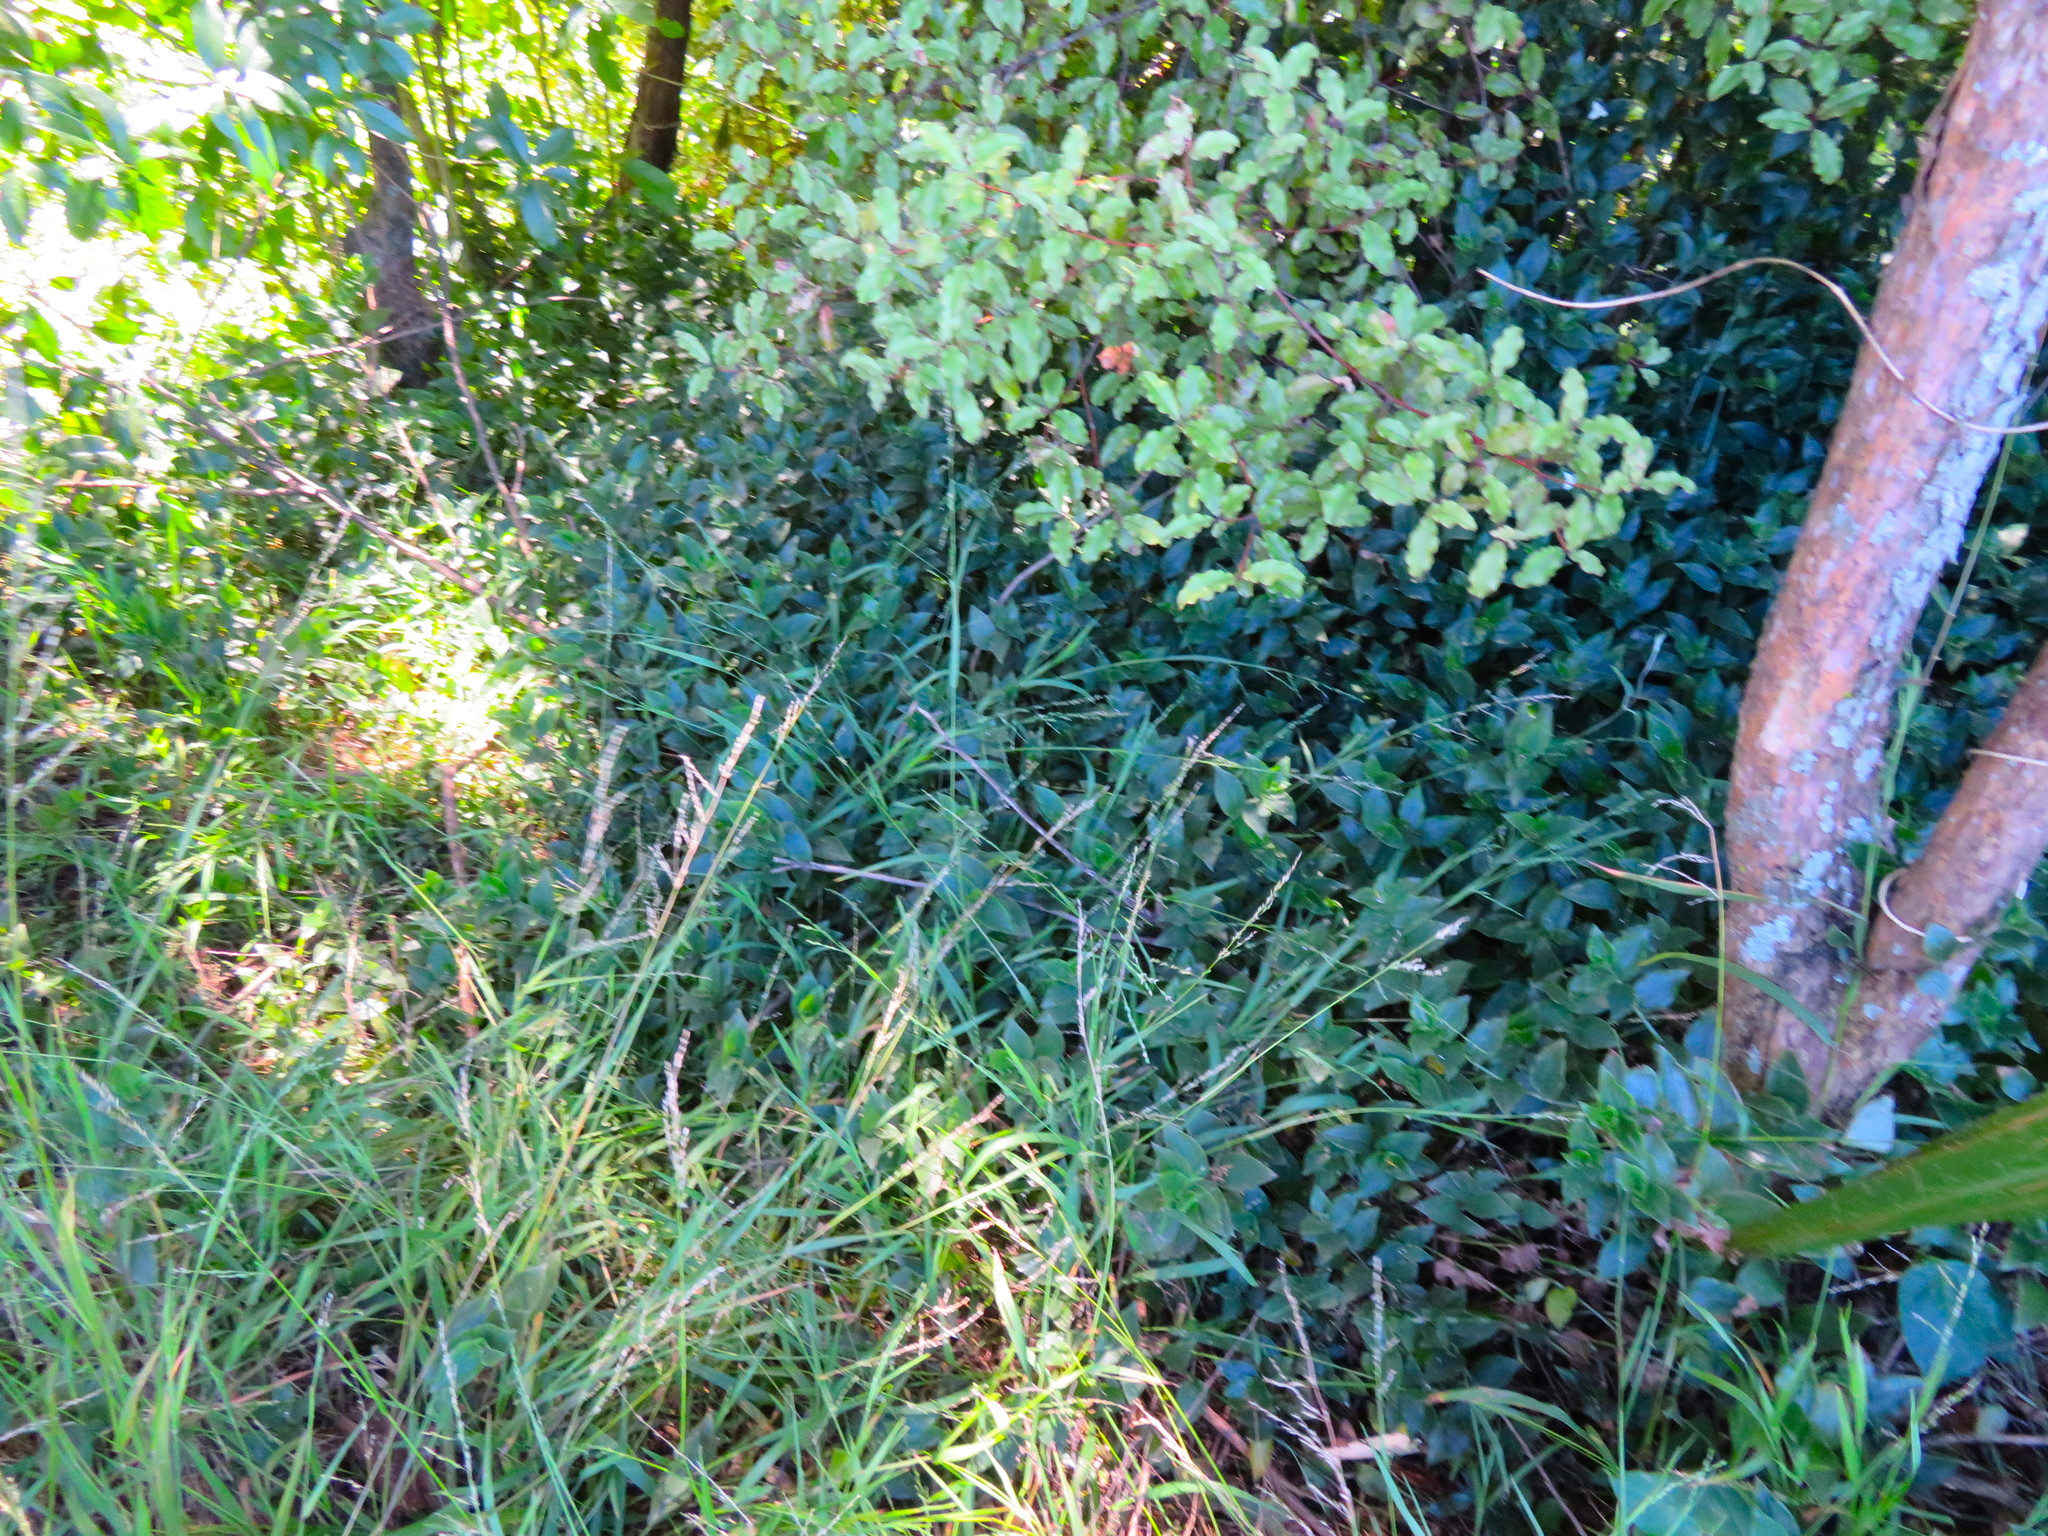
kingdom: Plantae
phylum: Tracheophyta
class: Liliopsida
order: Commelinales
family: Commelinaceae
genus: Tradescantia
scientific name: Tradescantia fluminensis
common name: Wandering-jew
